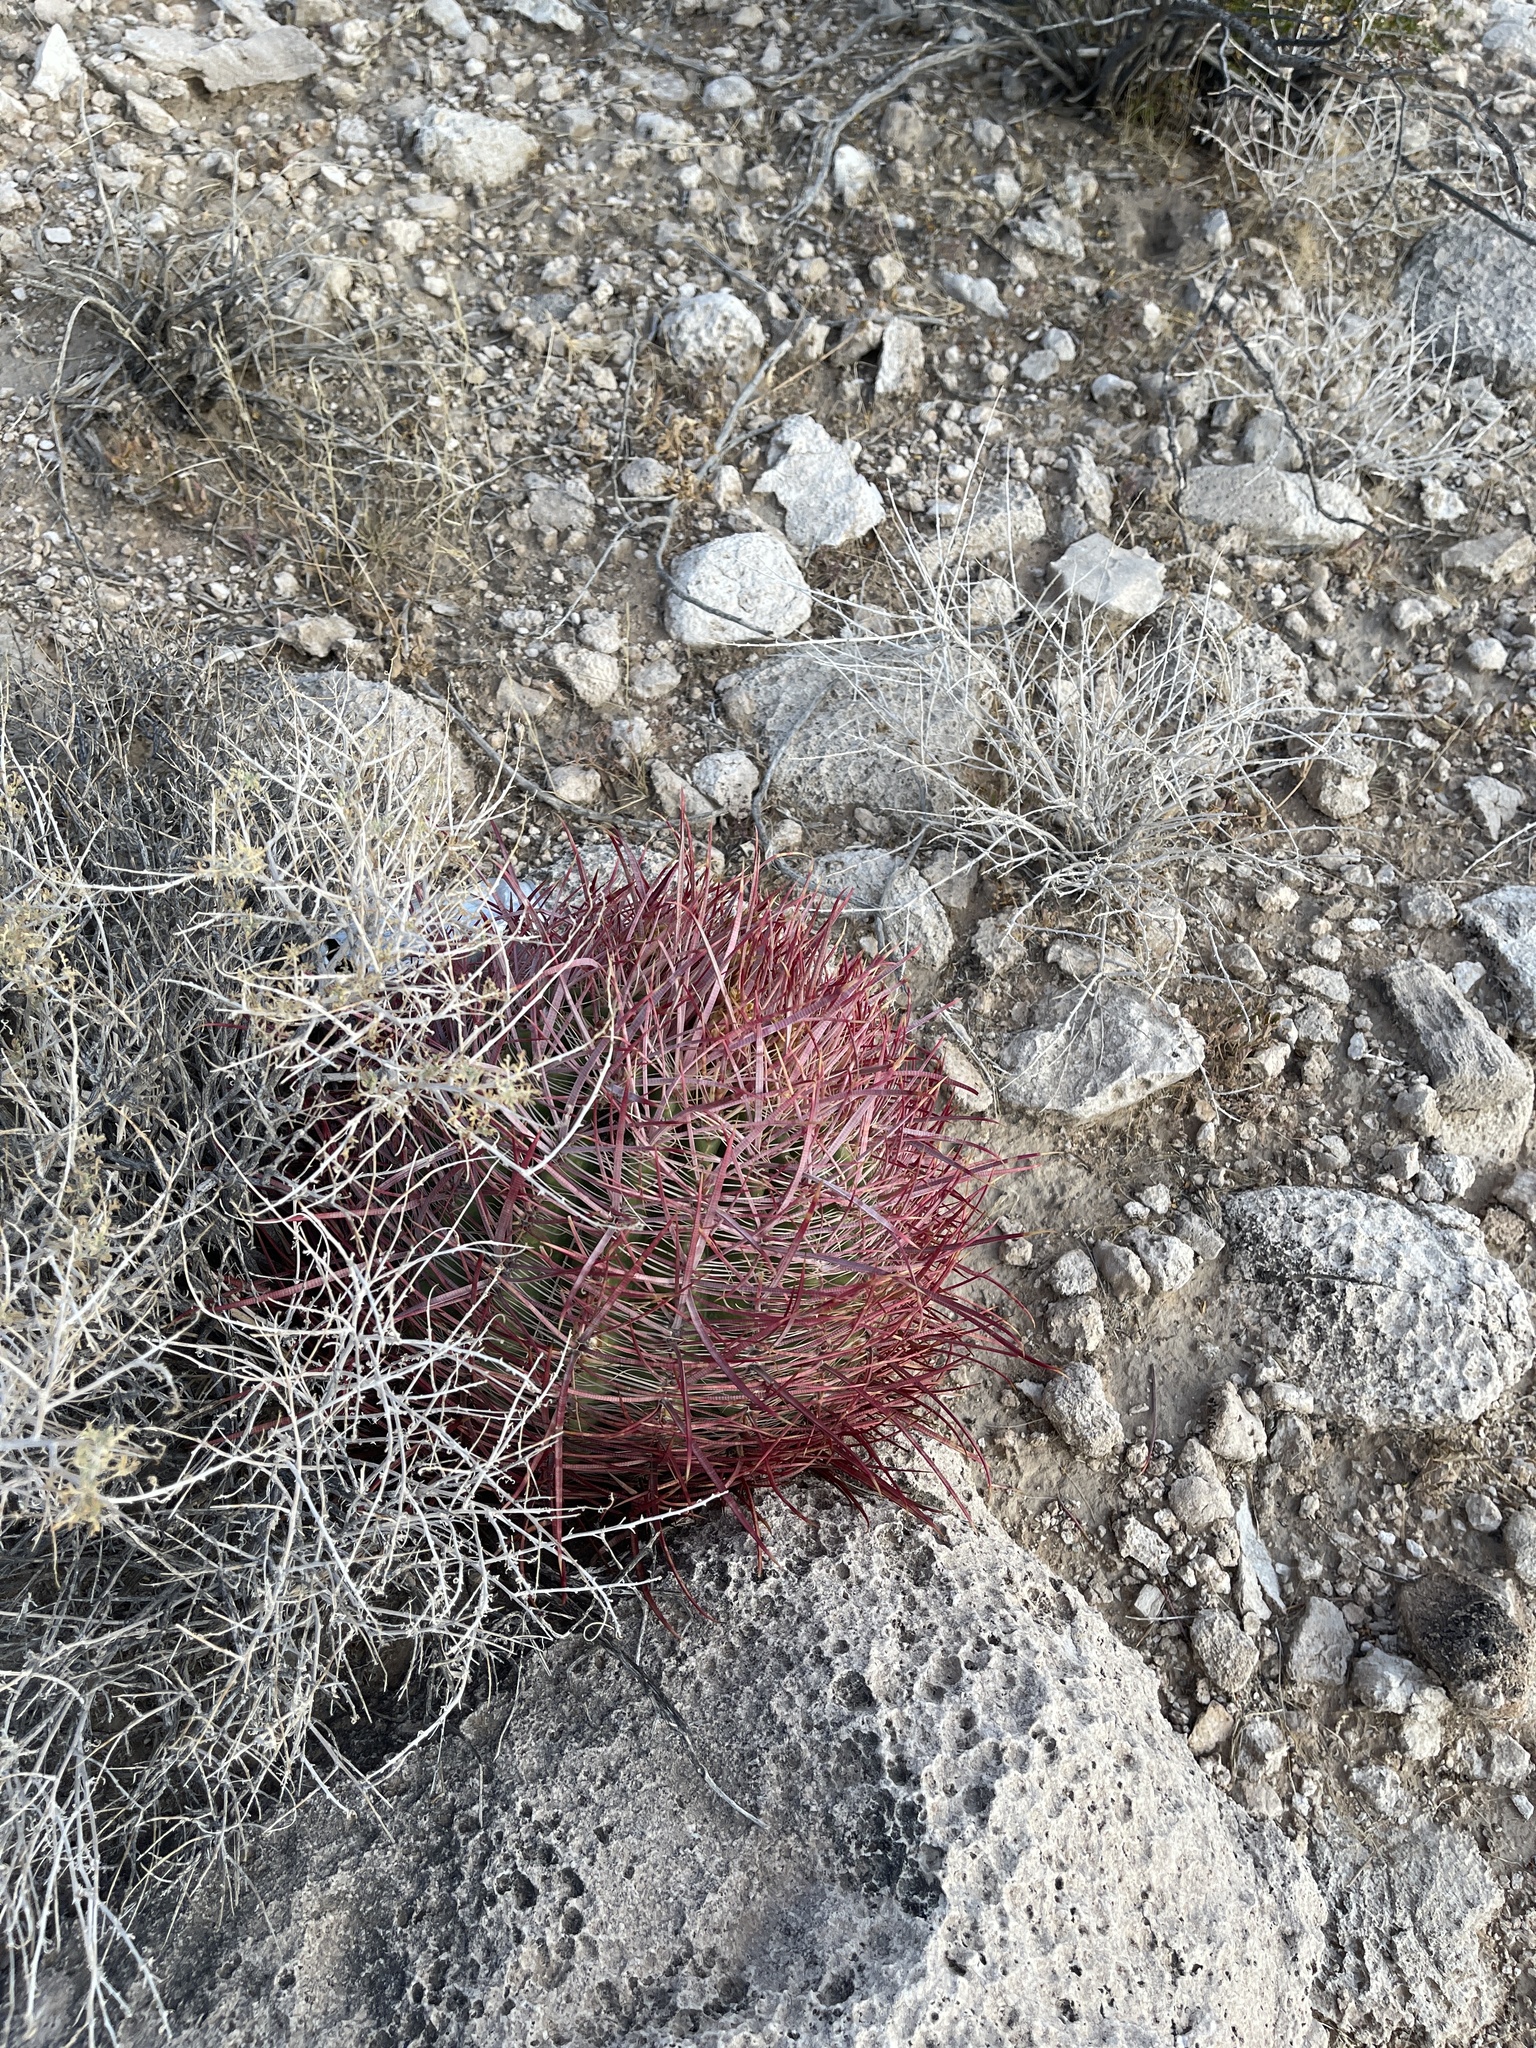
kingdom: Plantae
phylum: Tracheophyta
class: Magnoliopsida
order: Caryophyllales
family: Cactaceae
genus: Ferocactus
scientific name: Ferocactus cylindraceus
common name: California barrel cactus
